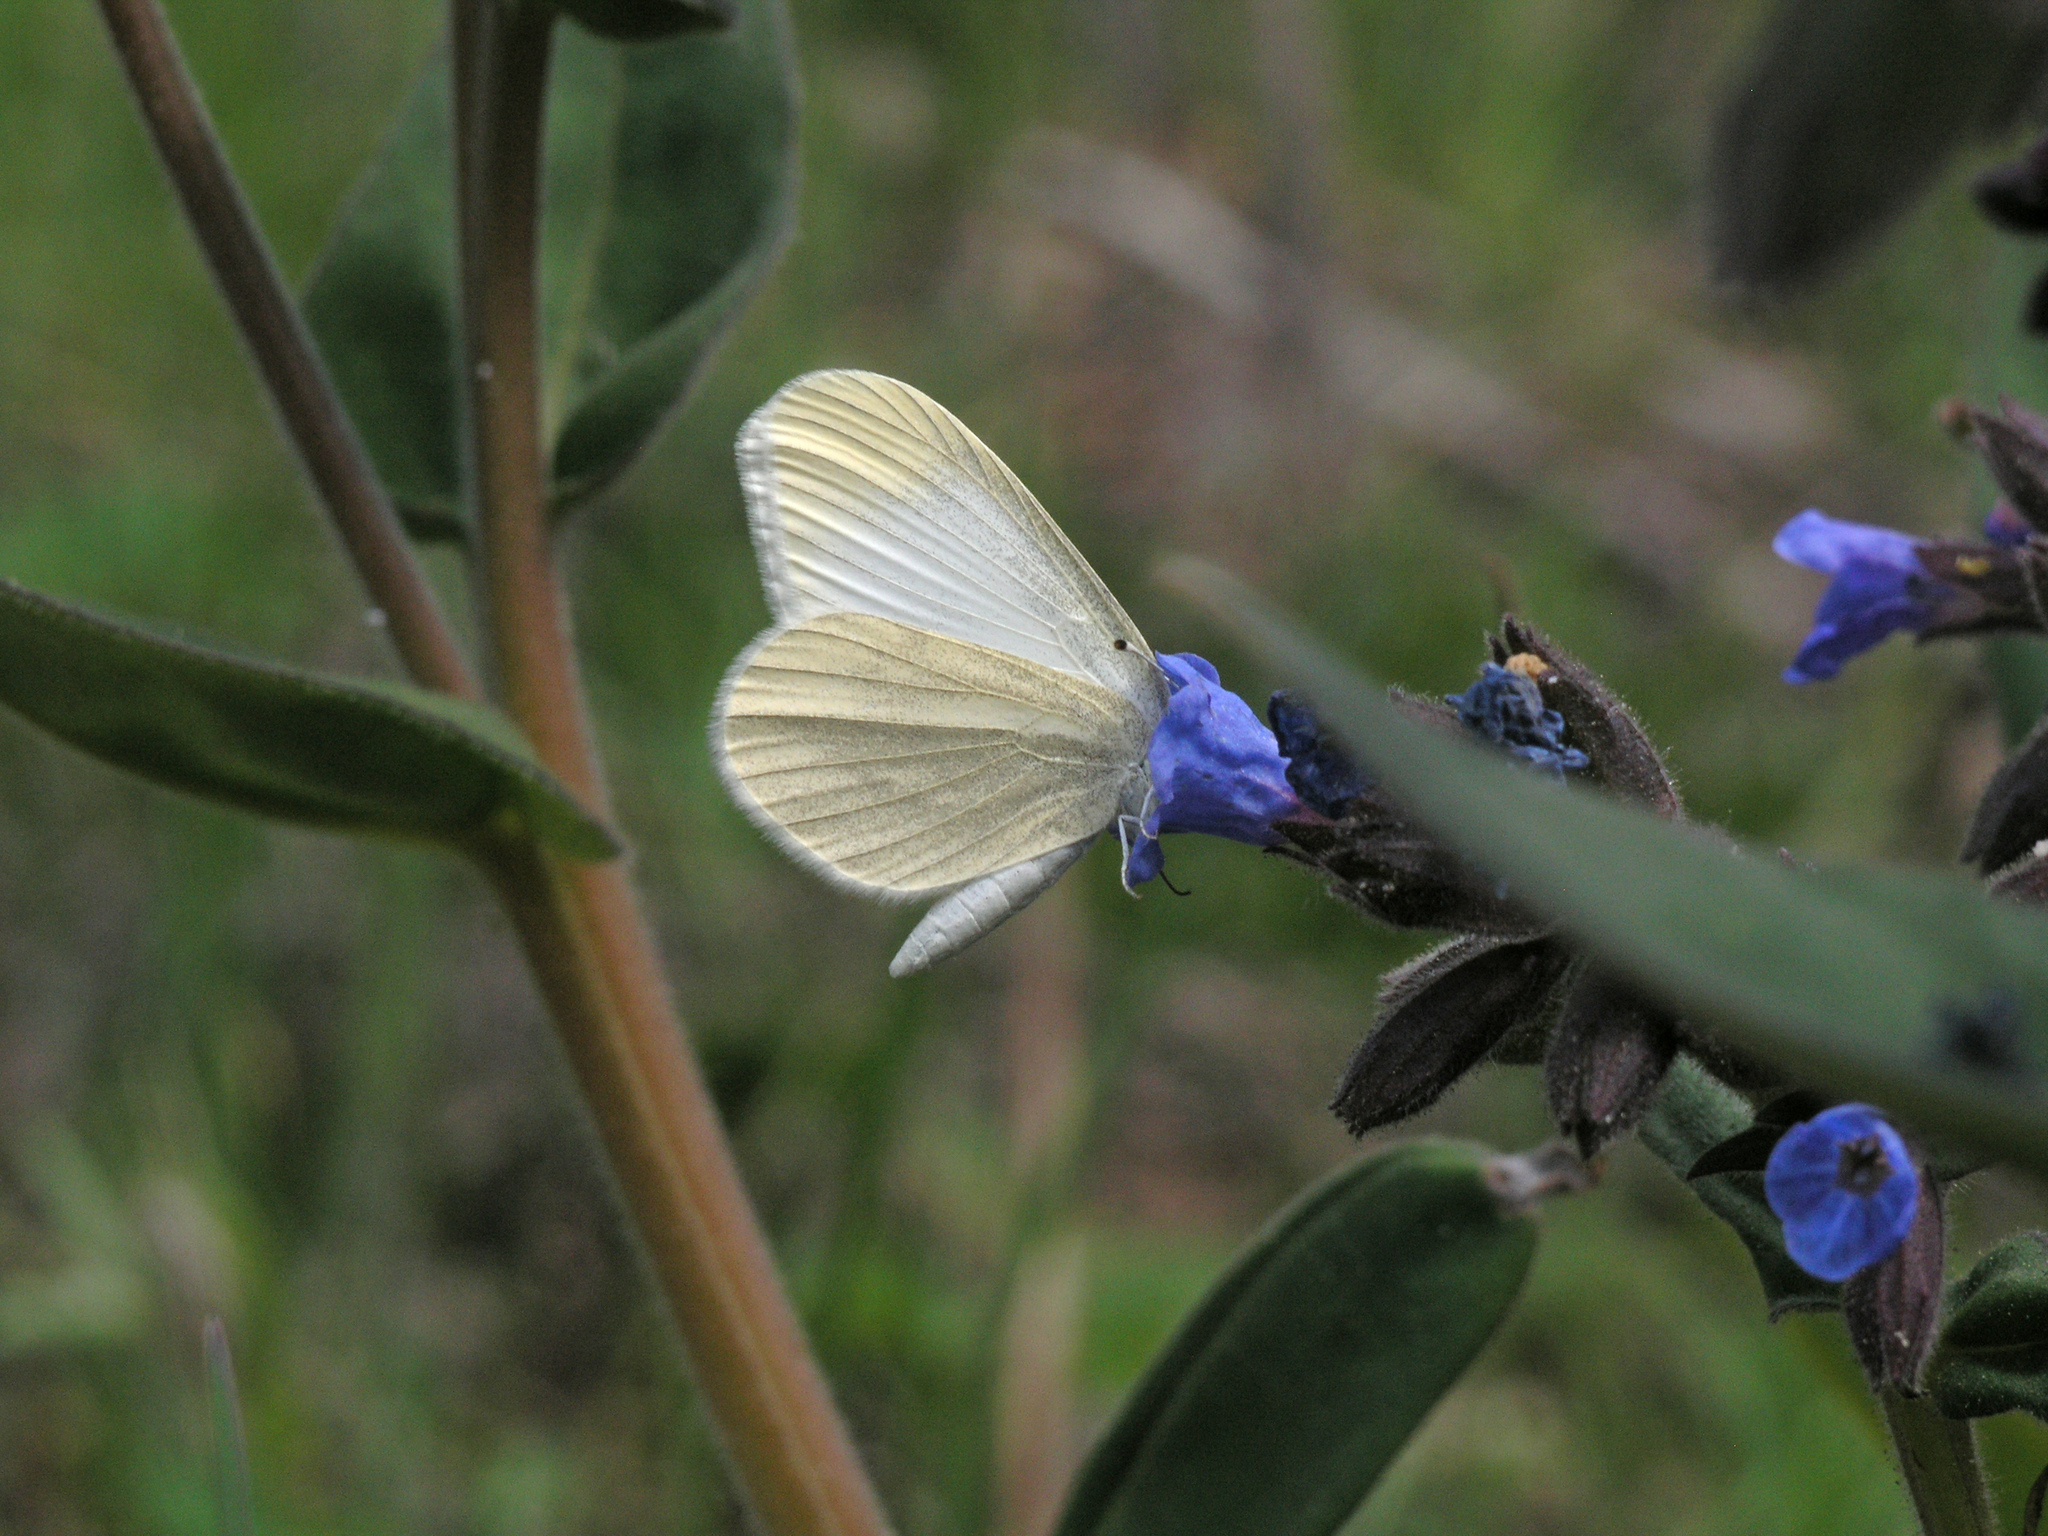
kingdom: Animalia
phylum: Arthropoda
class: Insecta
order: Lepidoptera
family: Pieridae
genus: Leptidea
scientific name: Leptidea amurensis
